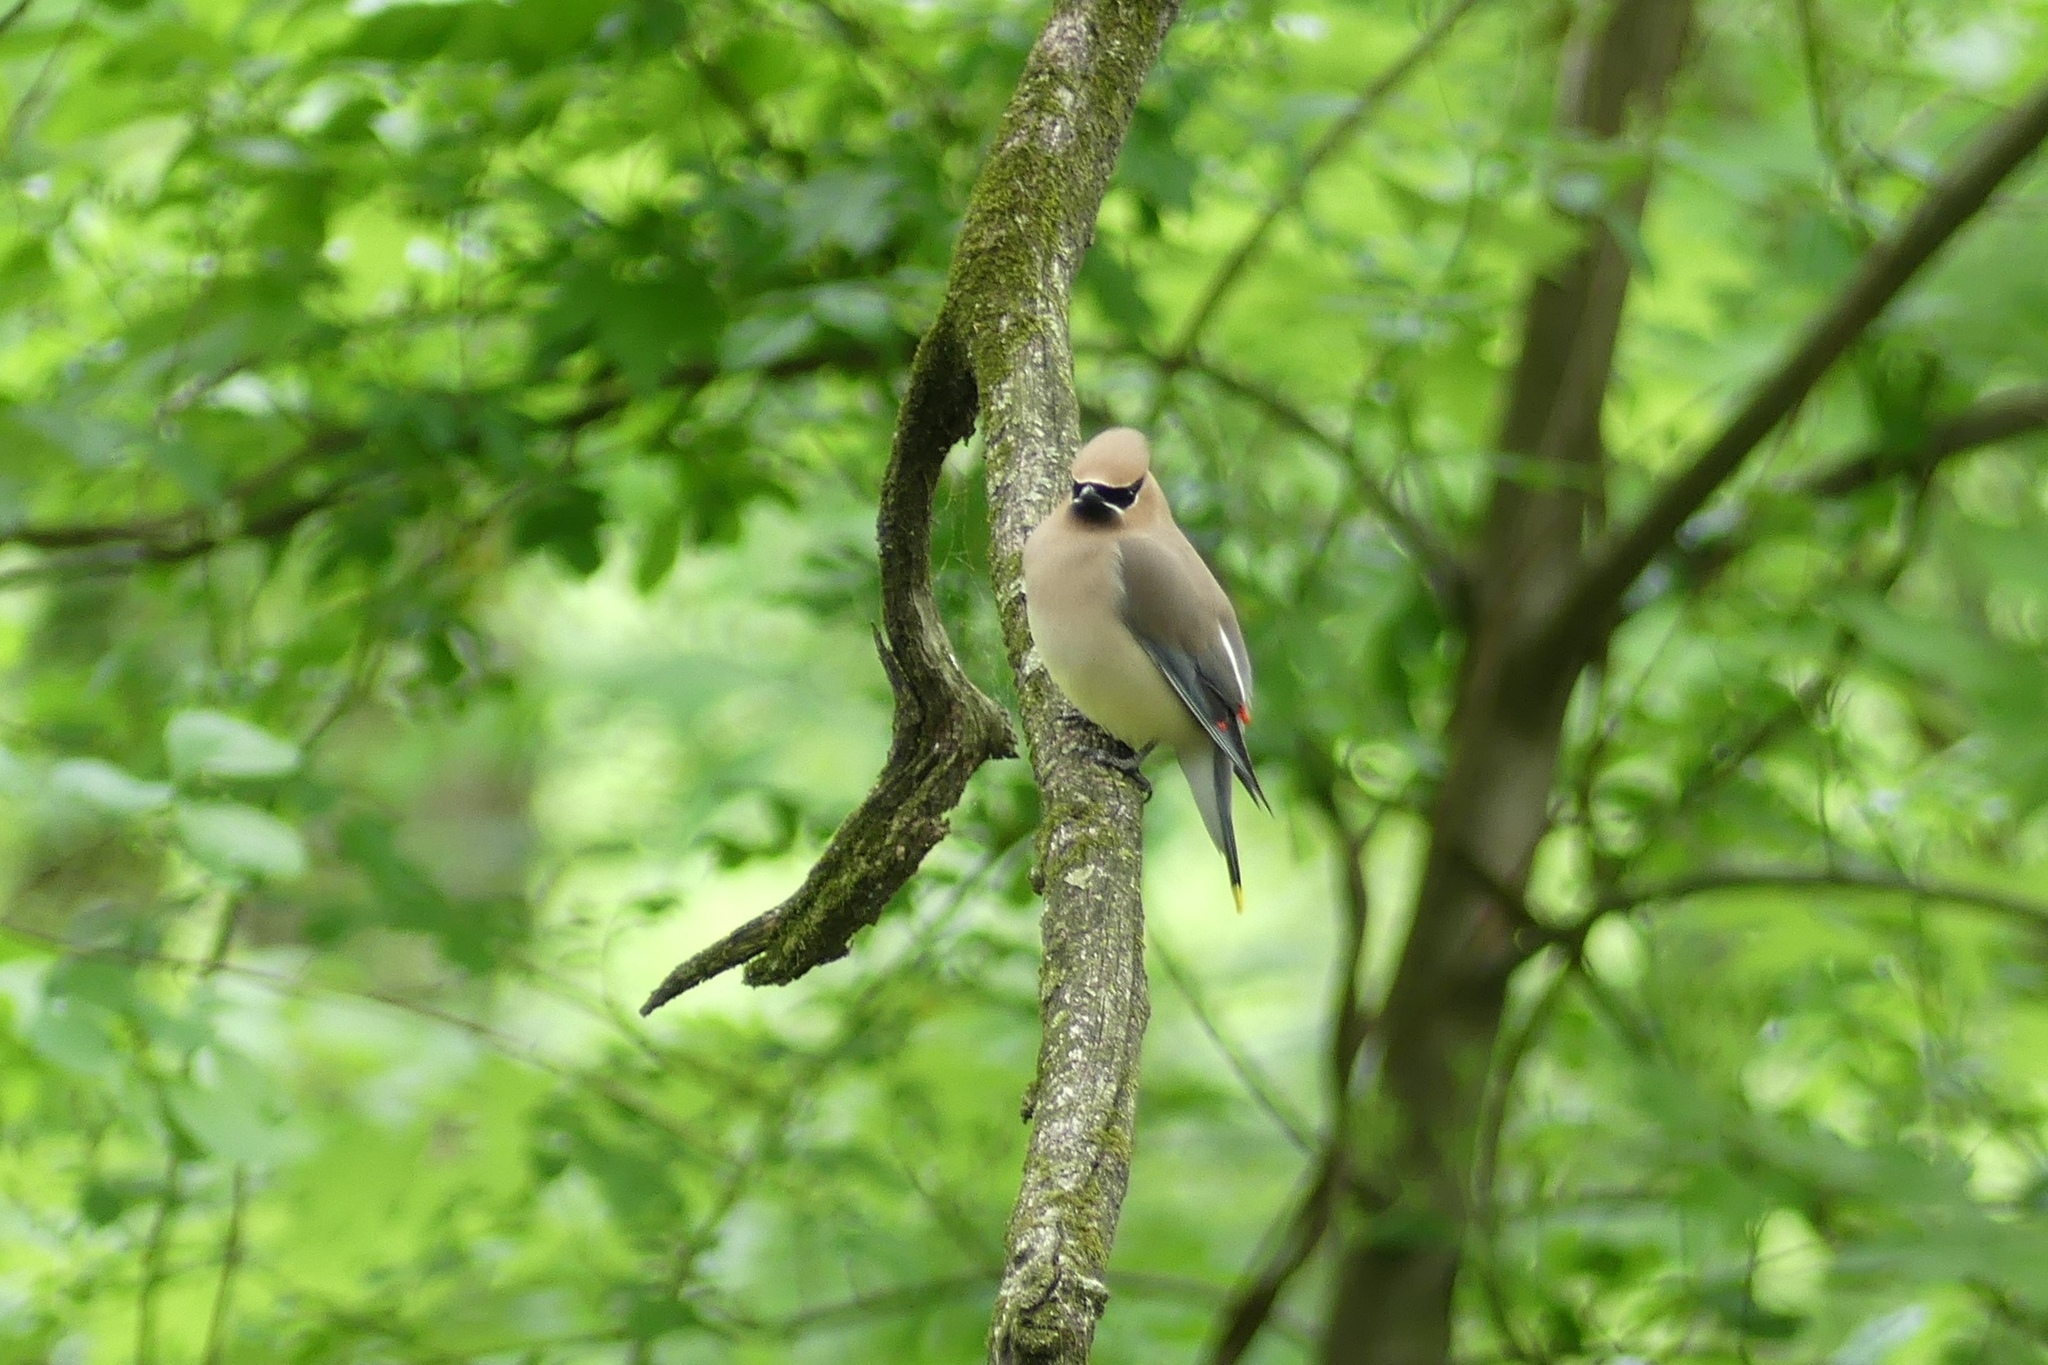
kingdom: Animalia
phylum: Chordata
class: Aves
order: Passeriformes
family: Bombycillidae
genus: Bombycilla
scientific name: Bombycilla cedrorum
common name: Cedar waxwing
